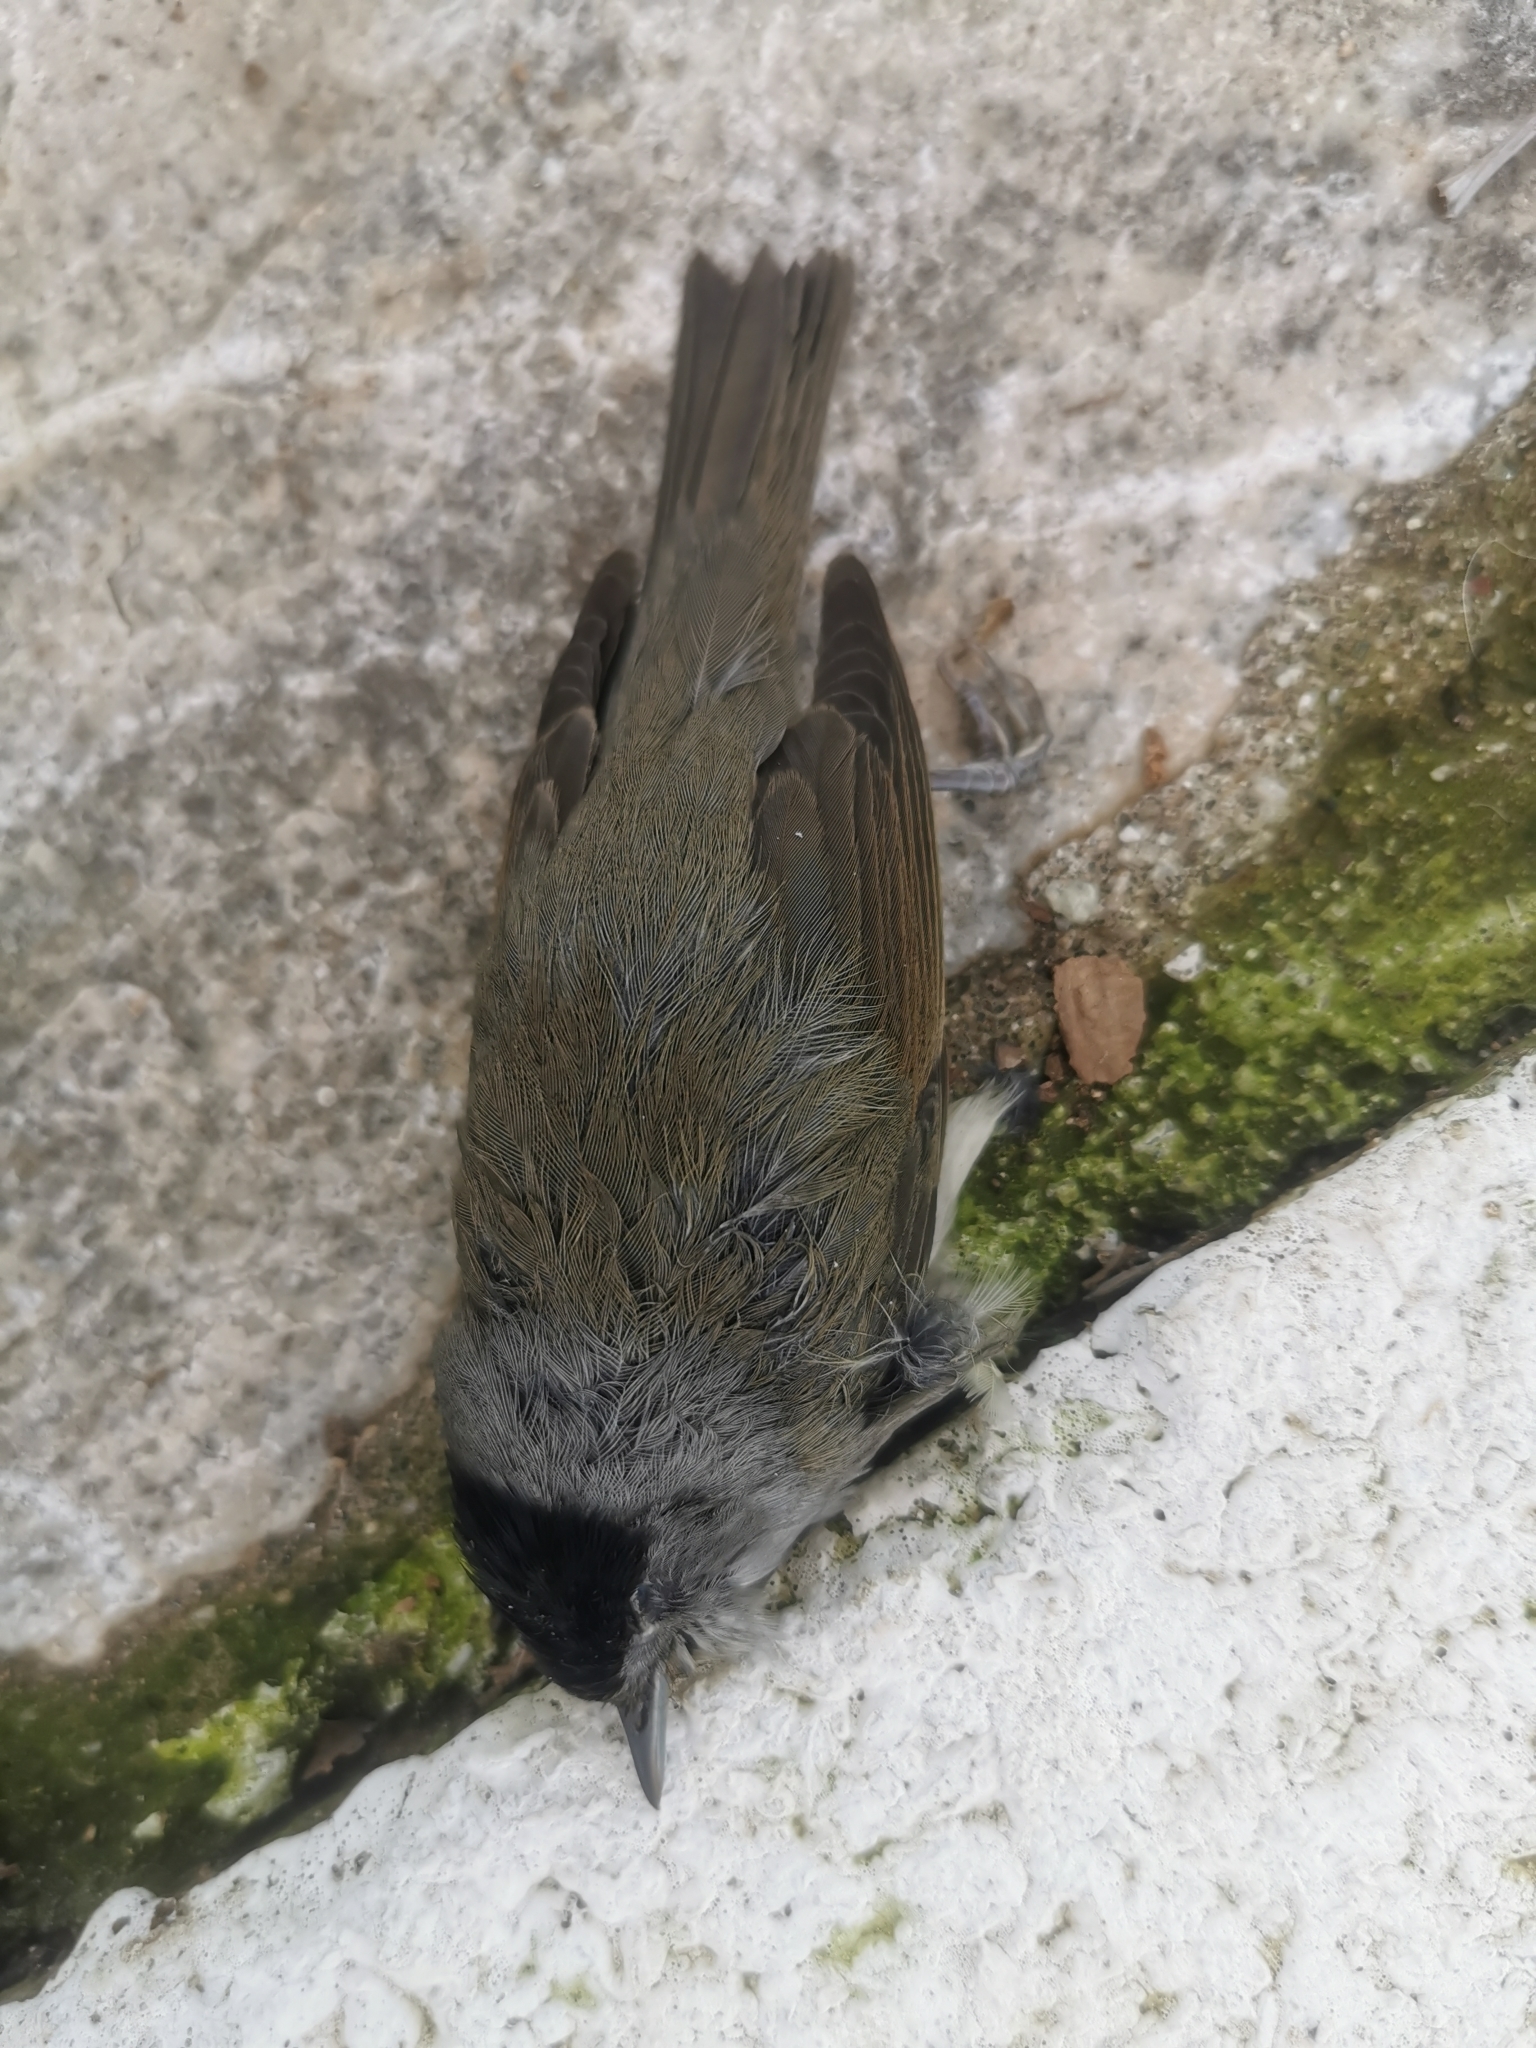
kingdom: Animalia
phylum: Chordata
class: Aves
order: Passeriformes
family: Sylviidae
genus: Sylvia
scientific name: Sylvia atricapilla
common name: Eurasian blackcap
